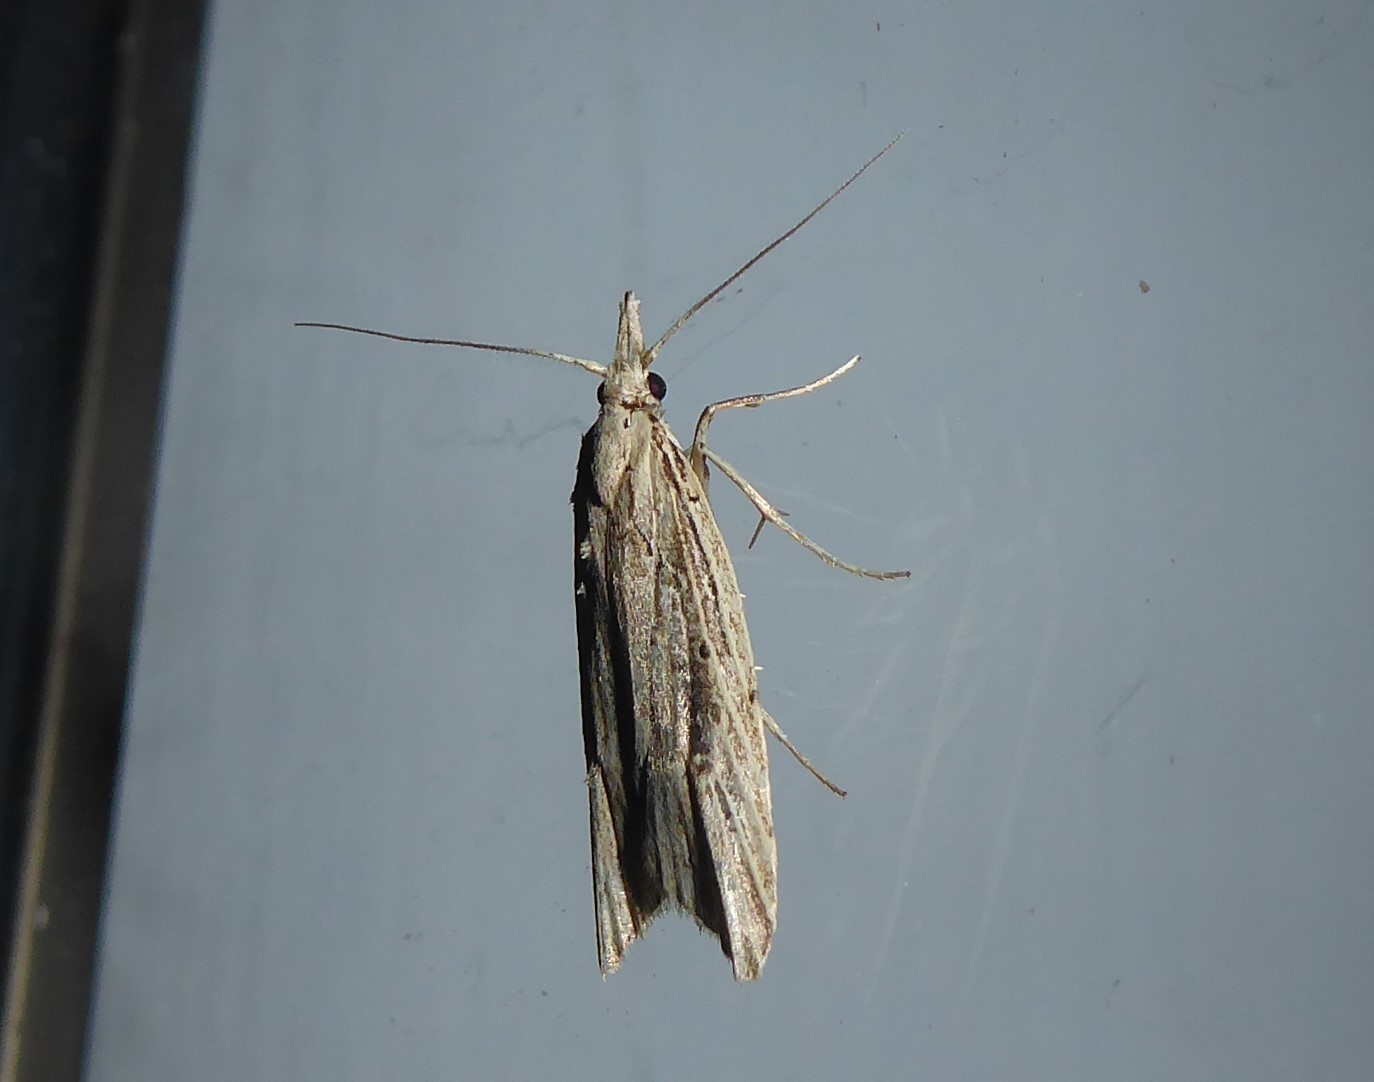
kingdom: Animalia
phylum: Arthropoda
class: Insecta
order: Lepidoptera
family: Carposinidae
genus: Carposina
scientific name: Carposina Heterocrossa exochana
